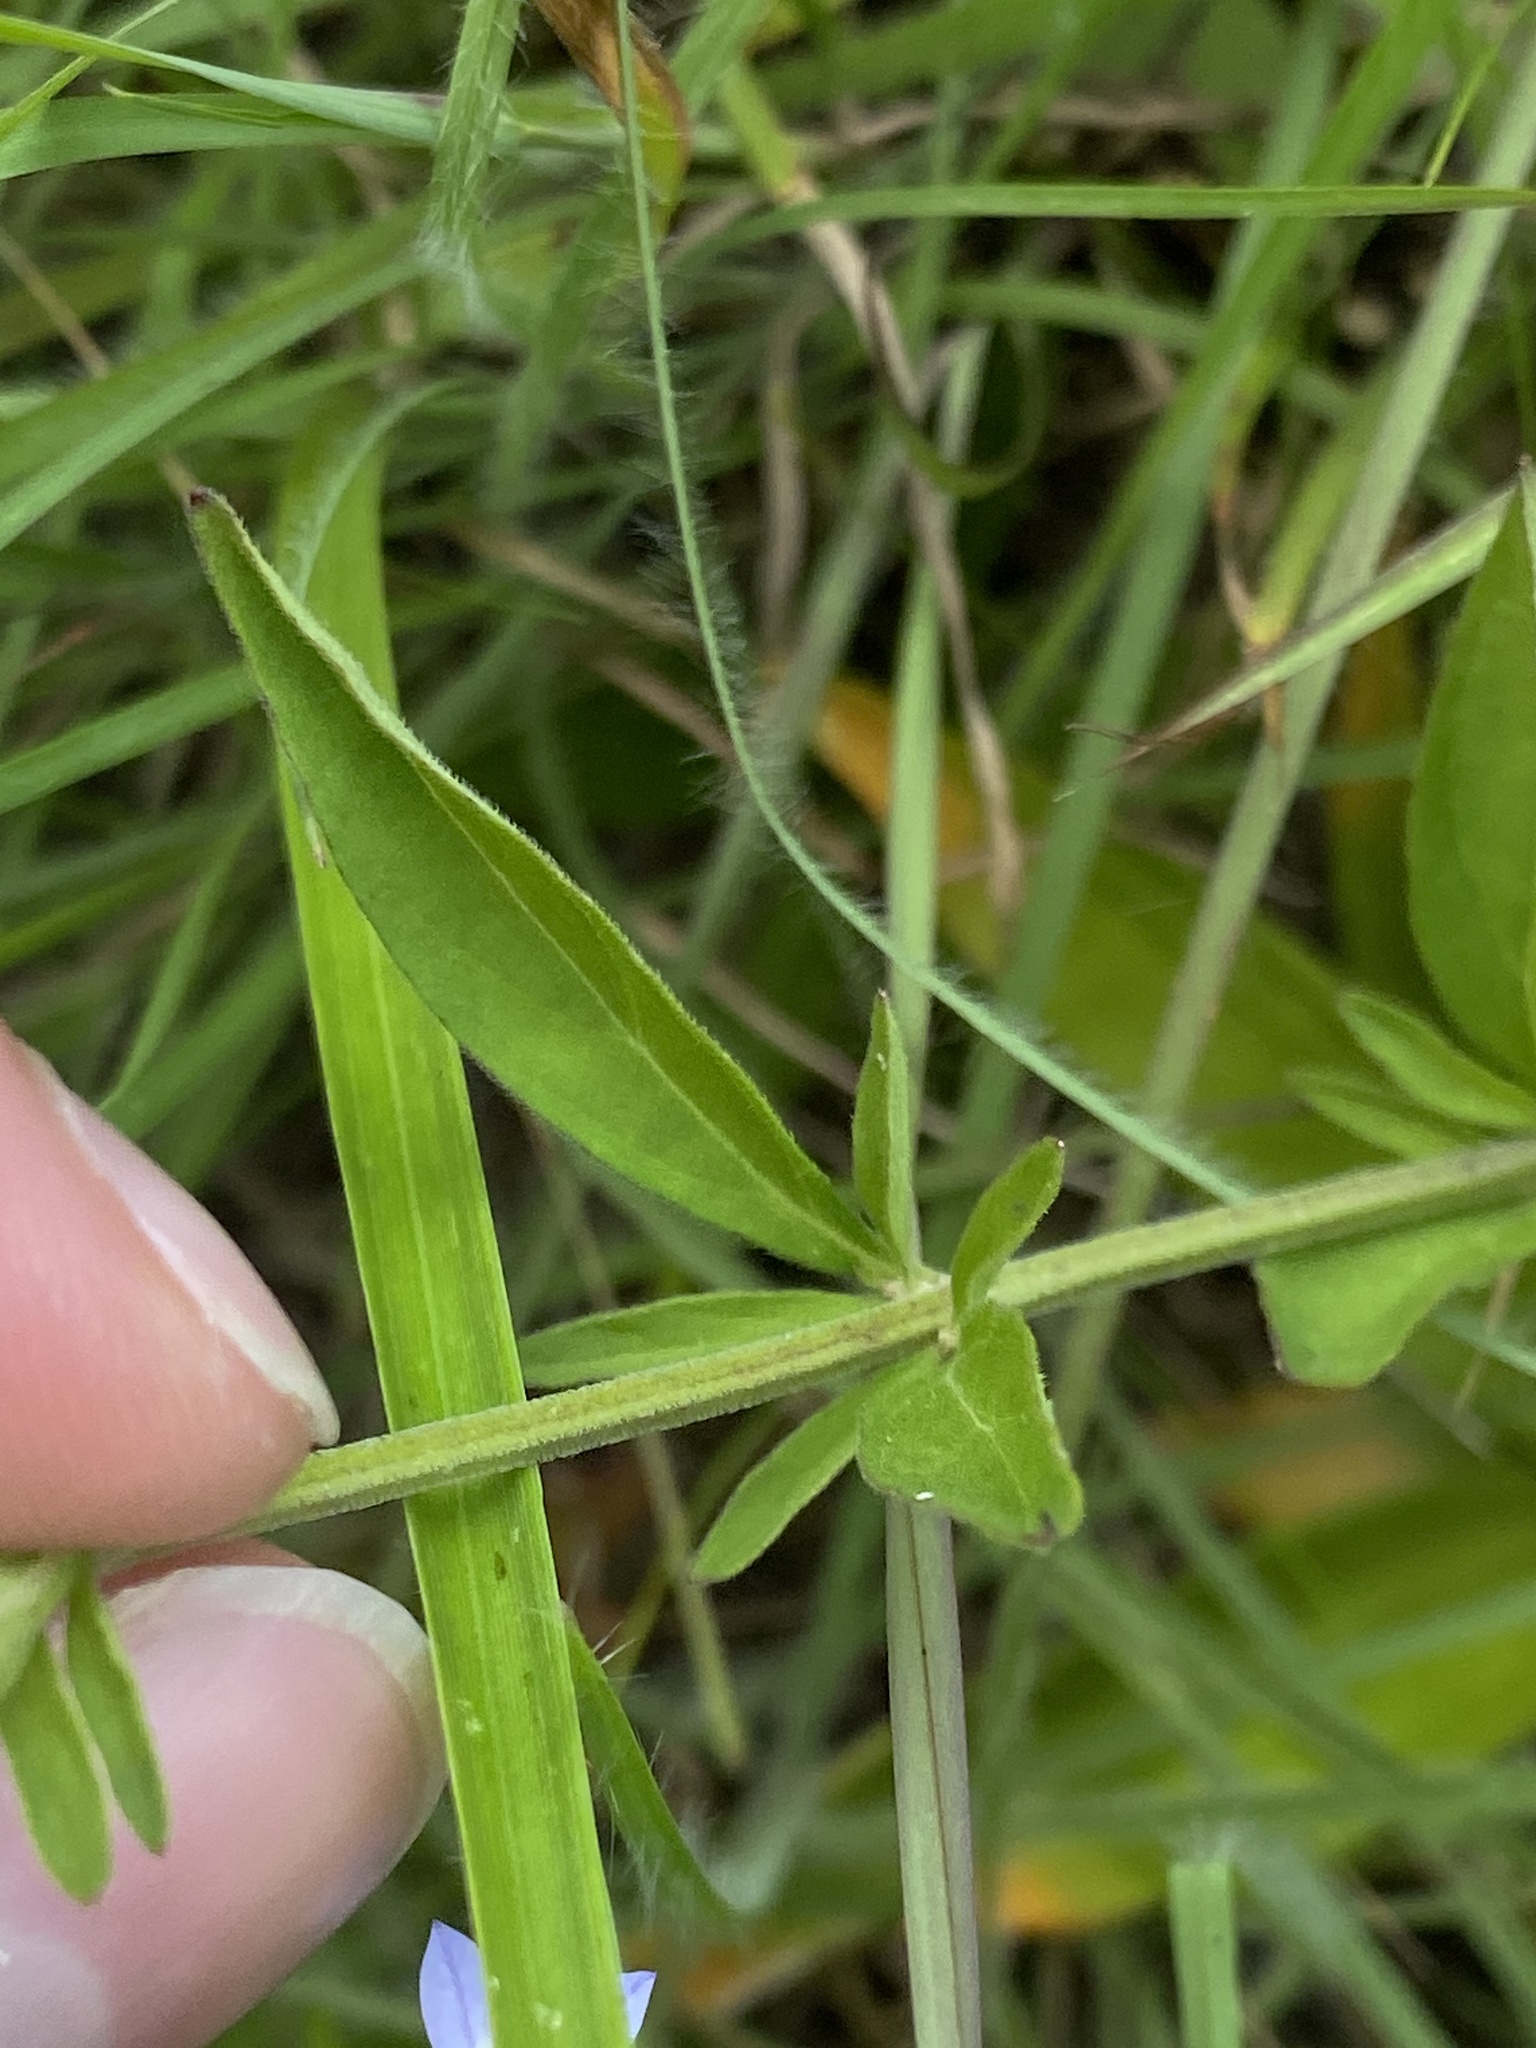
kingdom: Plantae
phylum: Tracheophyta
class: Magnoliopsida
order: Lamiales
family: Lamiaceae
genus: Scutellaria
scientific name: Scutellaria integrifolia
